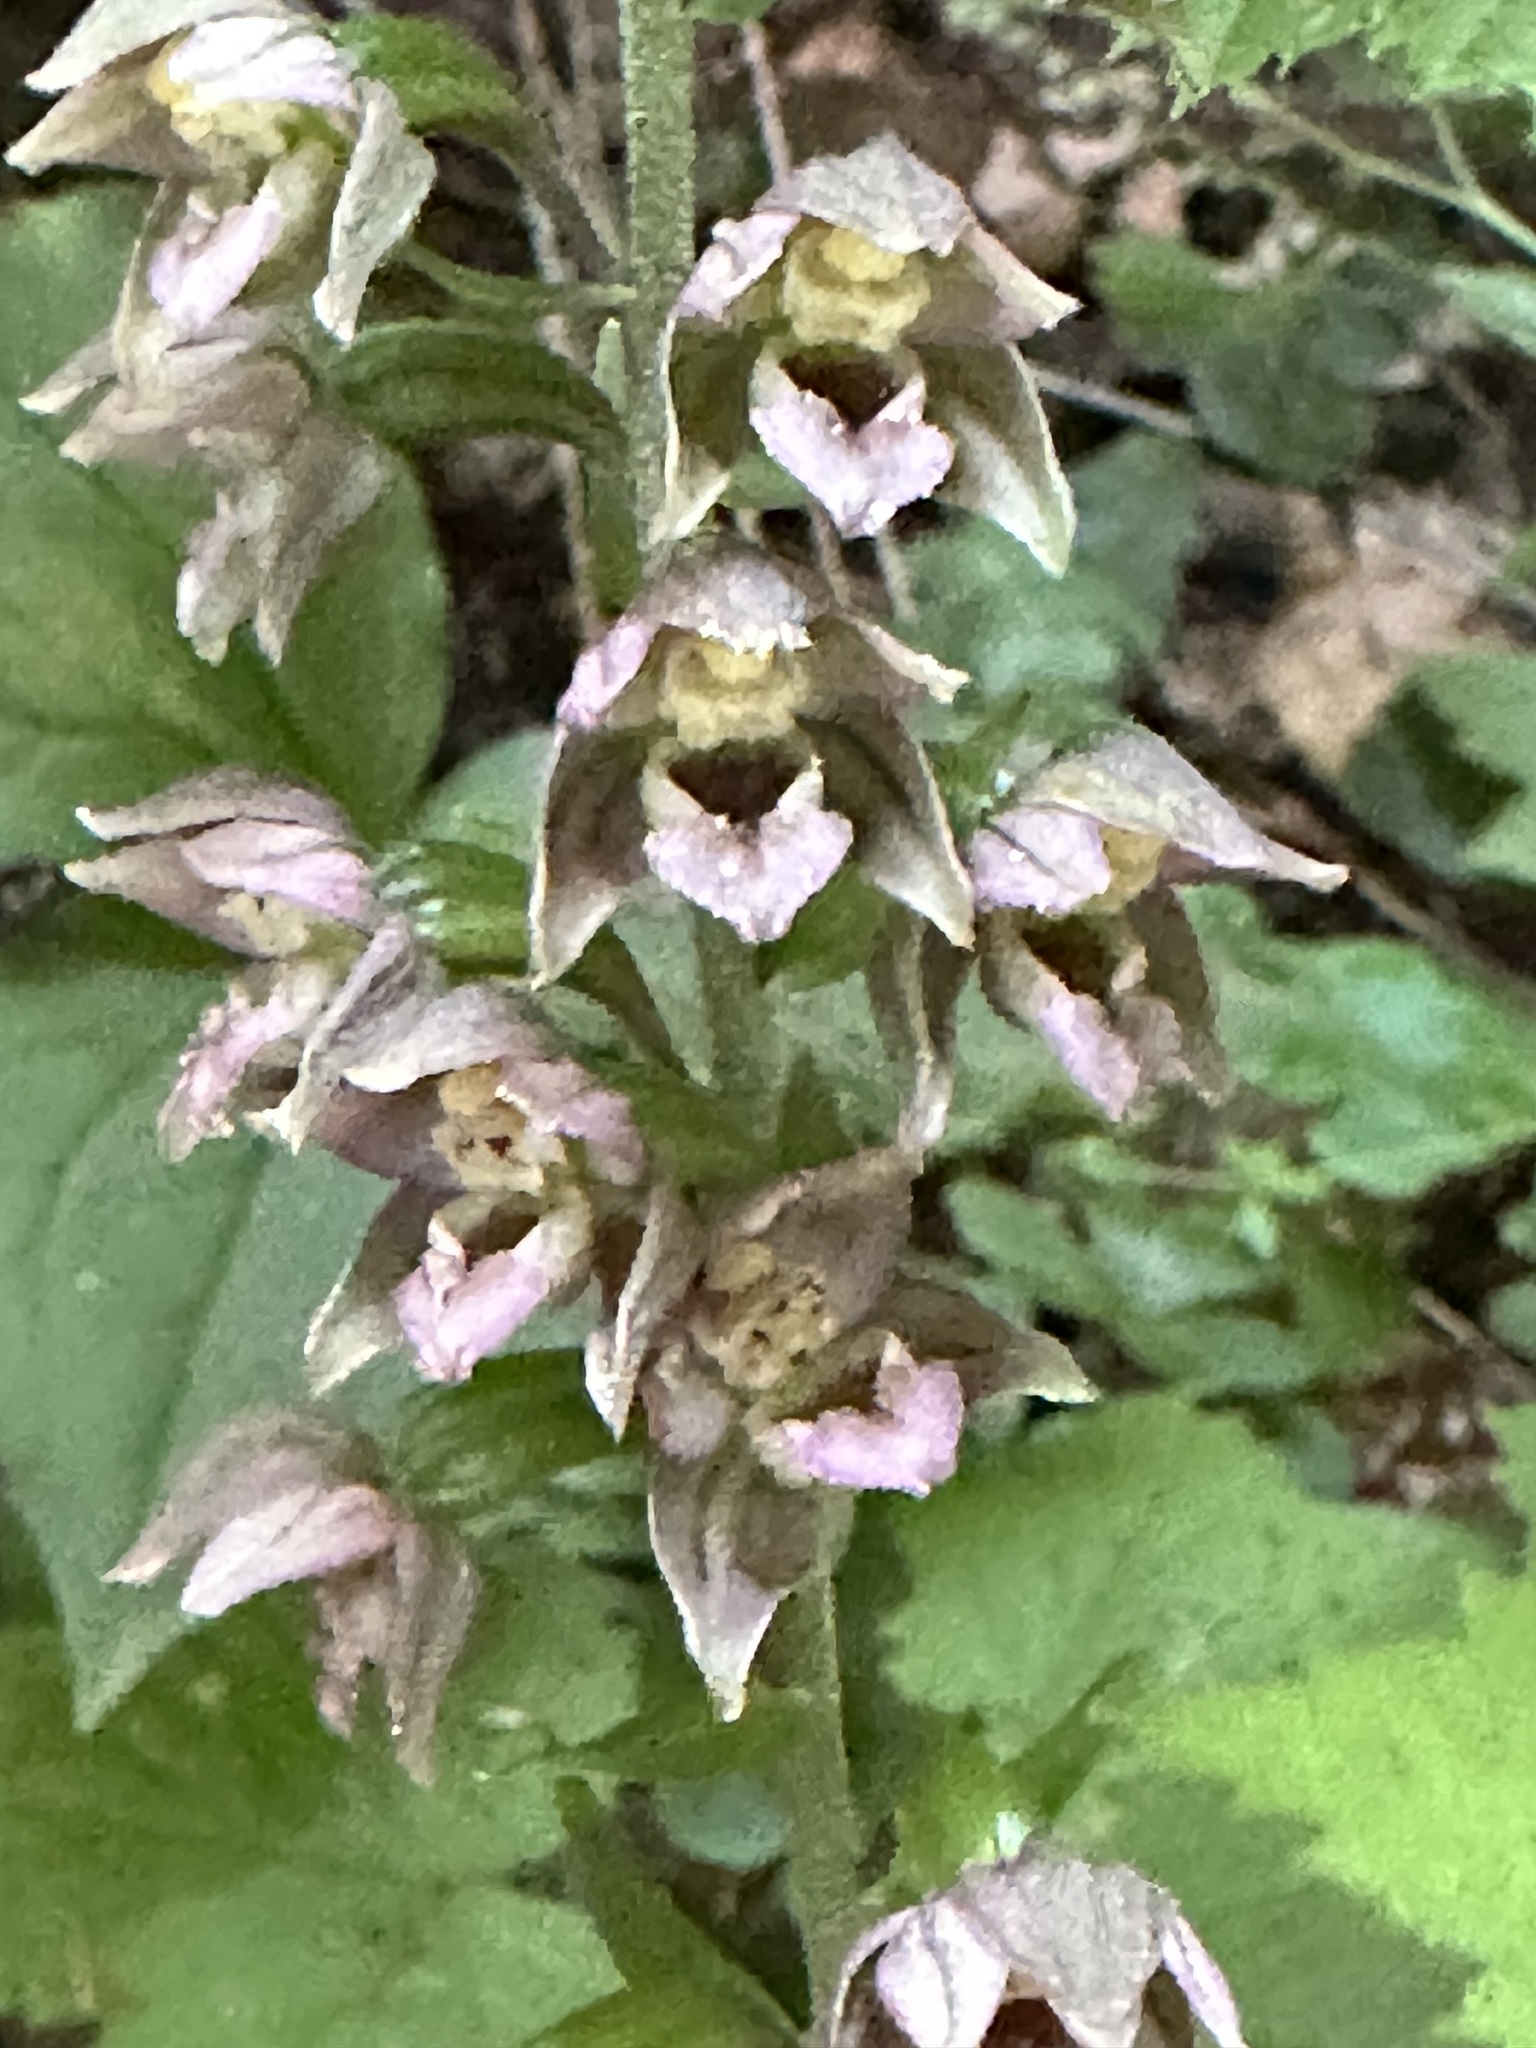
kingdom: Plantae
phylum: Tracheophyta
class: Liliopsida
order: Asparagales
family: Orchidaceae
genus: Epipactis
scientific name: Epipactis helleborine
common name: Broad-leaved helleborine
